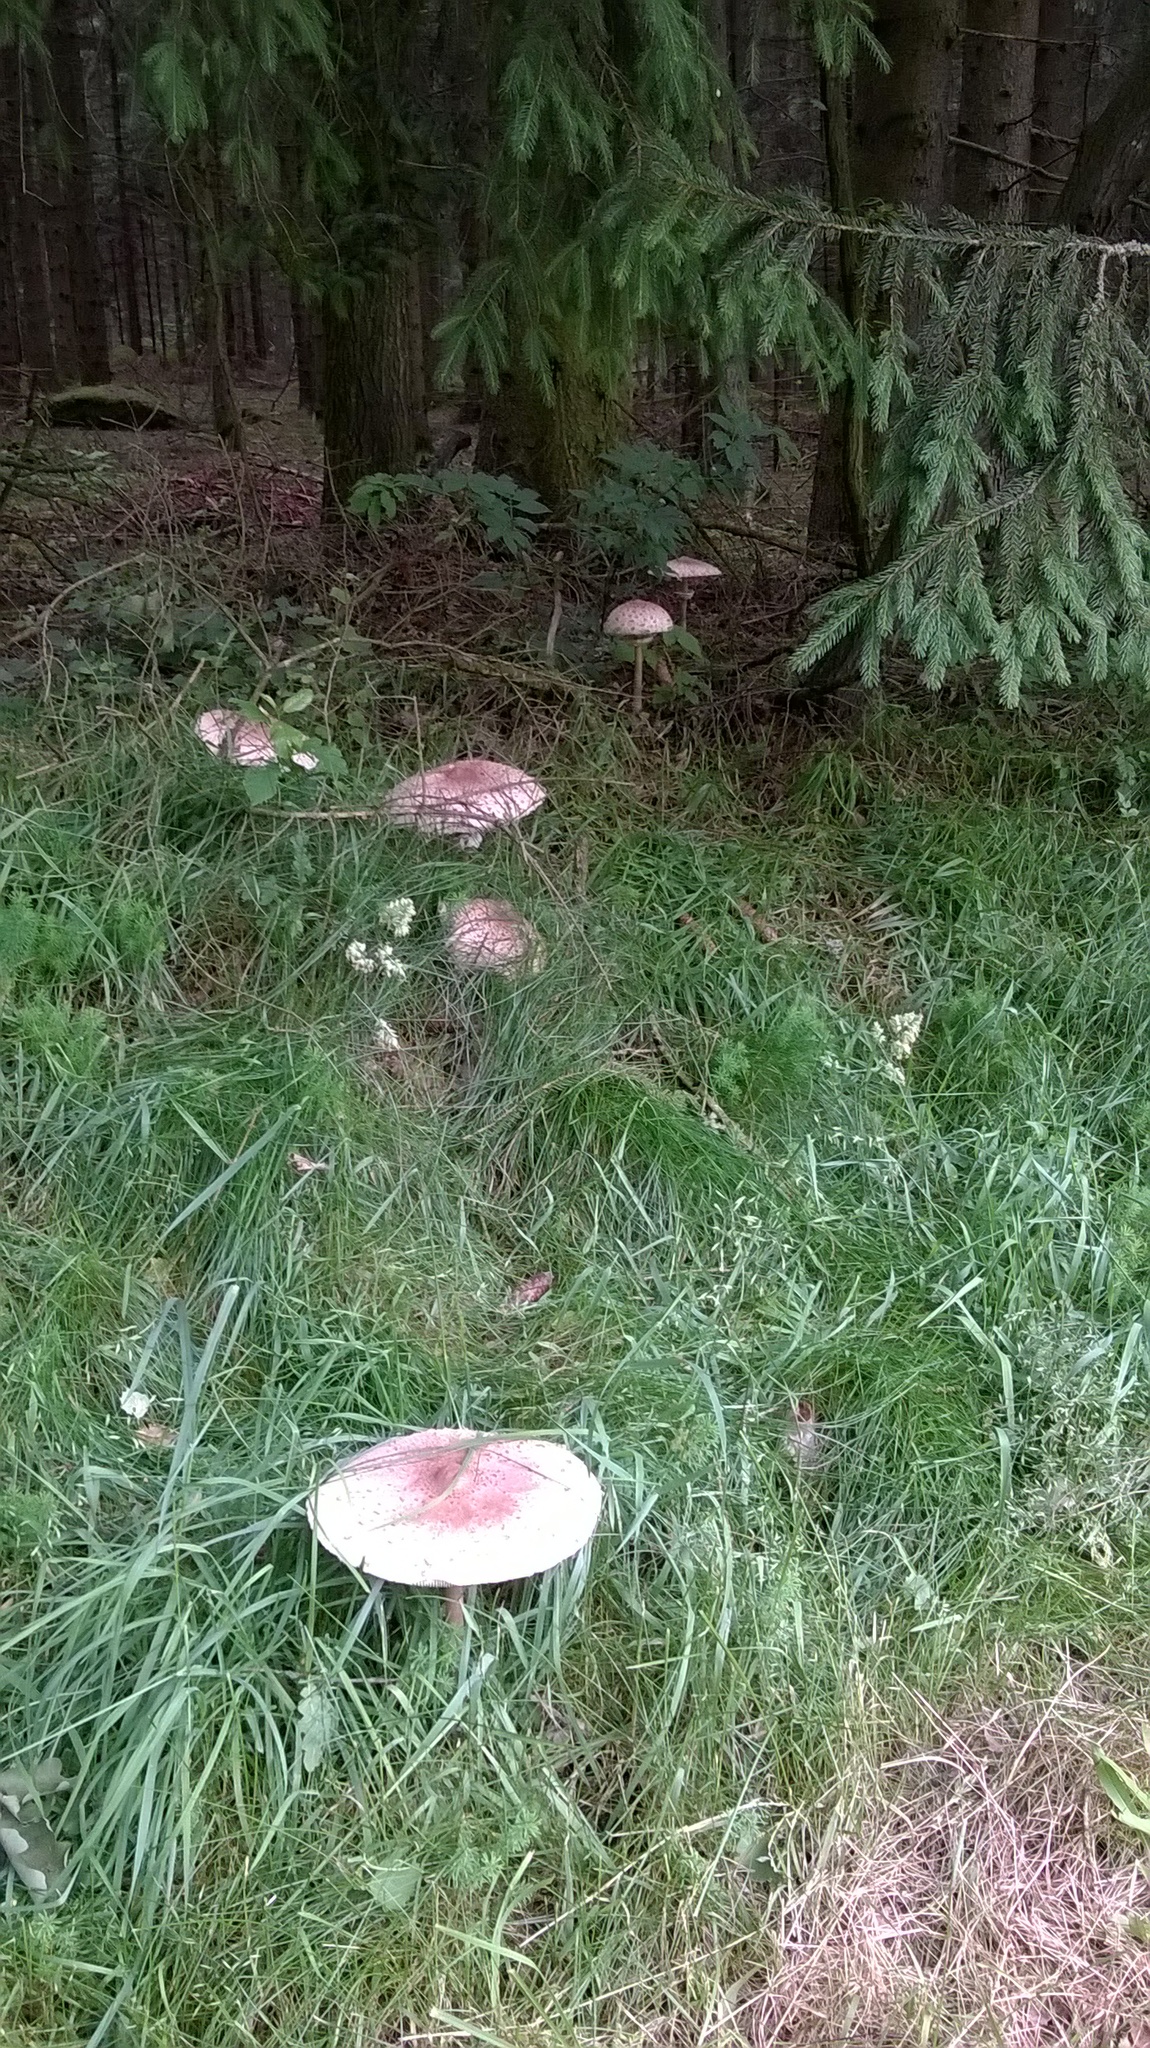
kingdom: Fungi
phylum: Basidiomycota
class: Agaricomycetes
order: Agaricales
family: Agaricaceae
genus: Macrolepiota
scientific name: Macrolepiota procera
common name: Parasol
